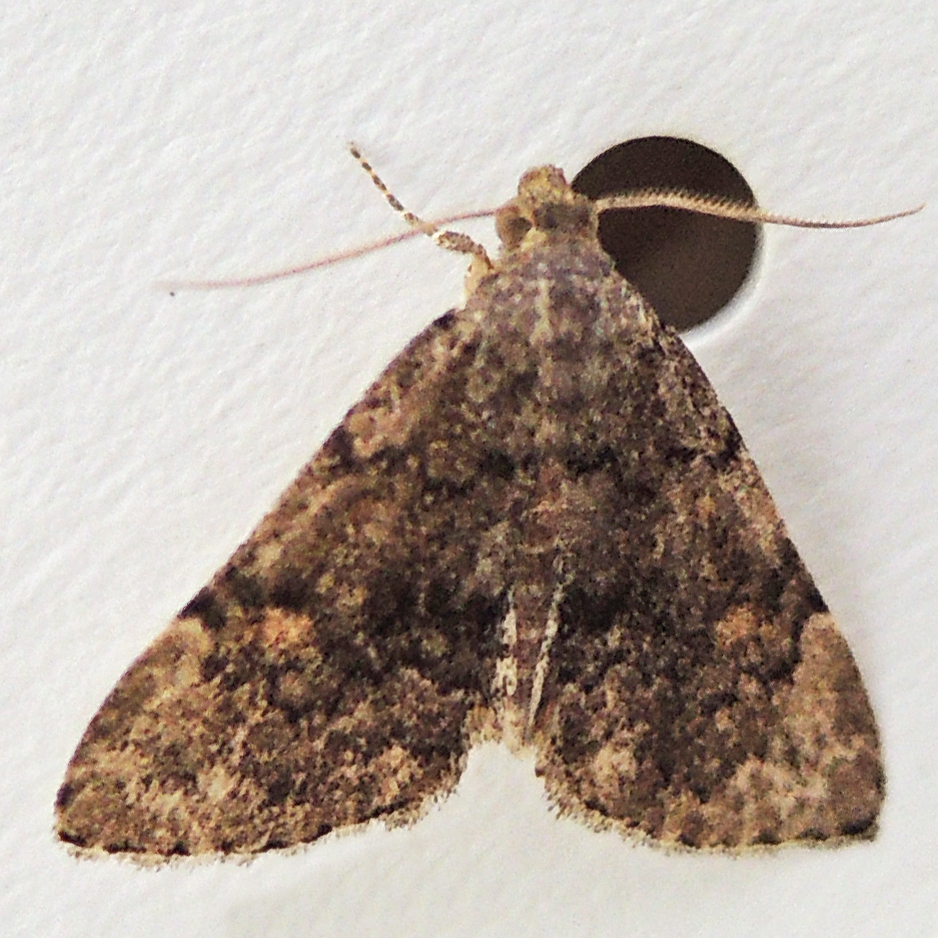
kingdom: Animalia
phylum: Arthropoda
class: Insecta
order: Lepidoptera
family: Erebidae
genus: Idia
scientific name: Idia aemula
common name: Common idia moth
